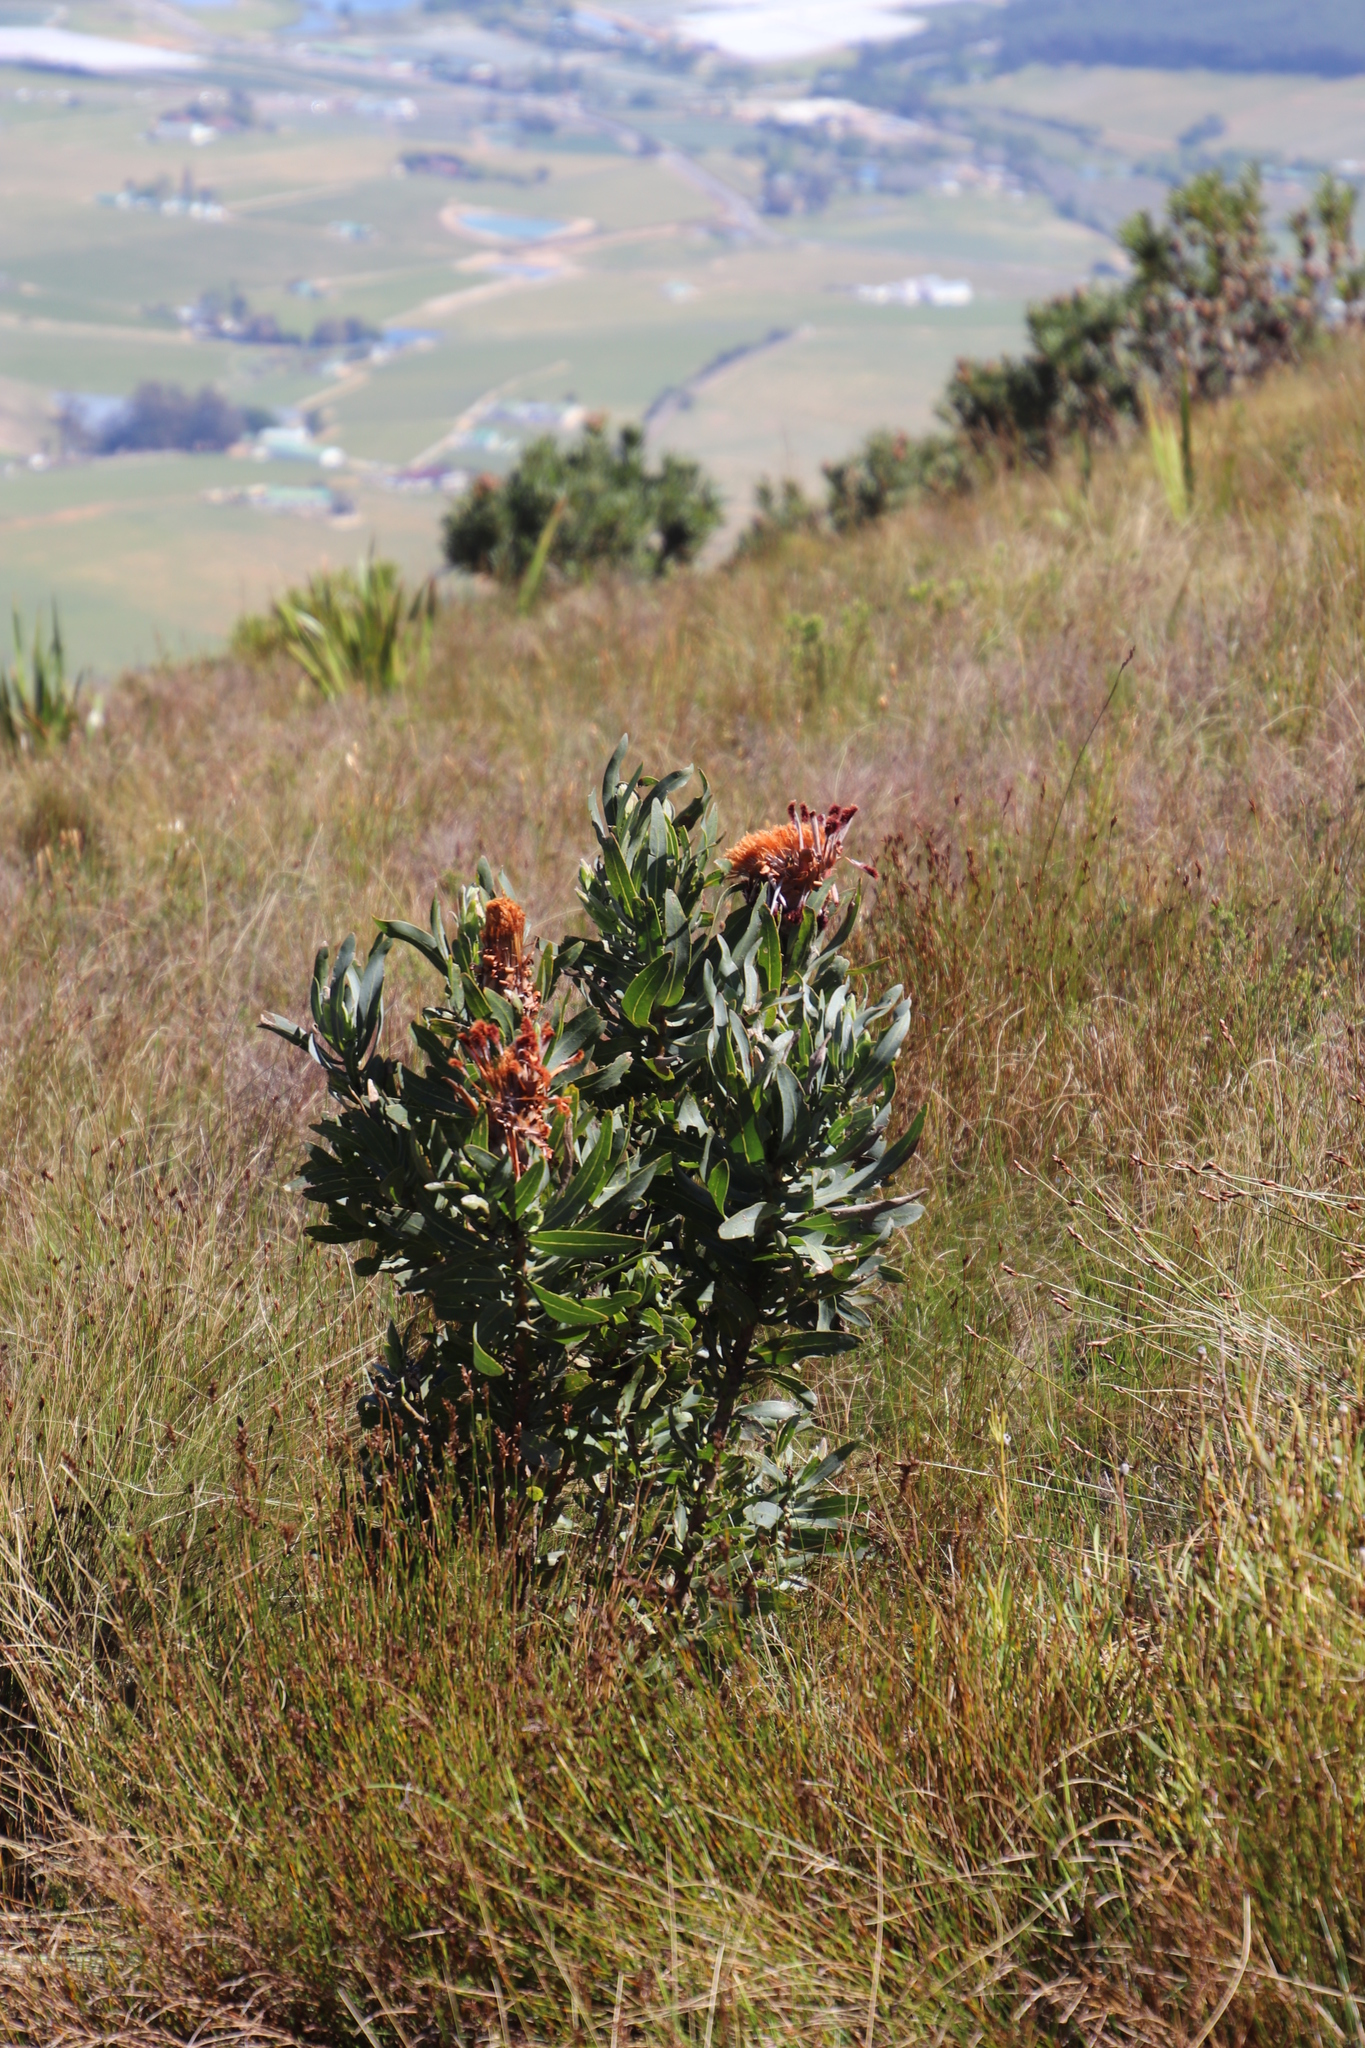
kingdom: Plantae
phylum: Tracheophyta
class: Magnoliopsida
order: Proteales
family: Proteaceae
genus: Protea
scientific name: Protea laurifolia
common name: Grey-leaf sugarbsh
